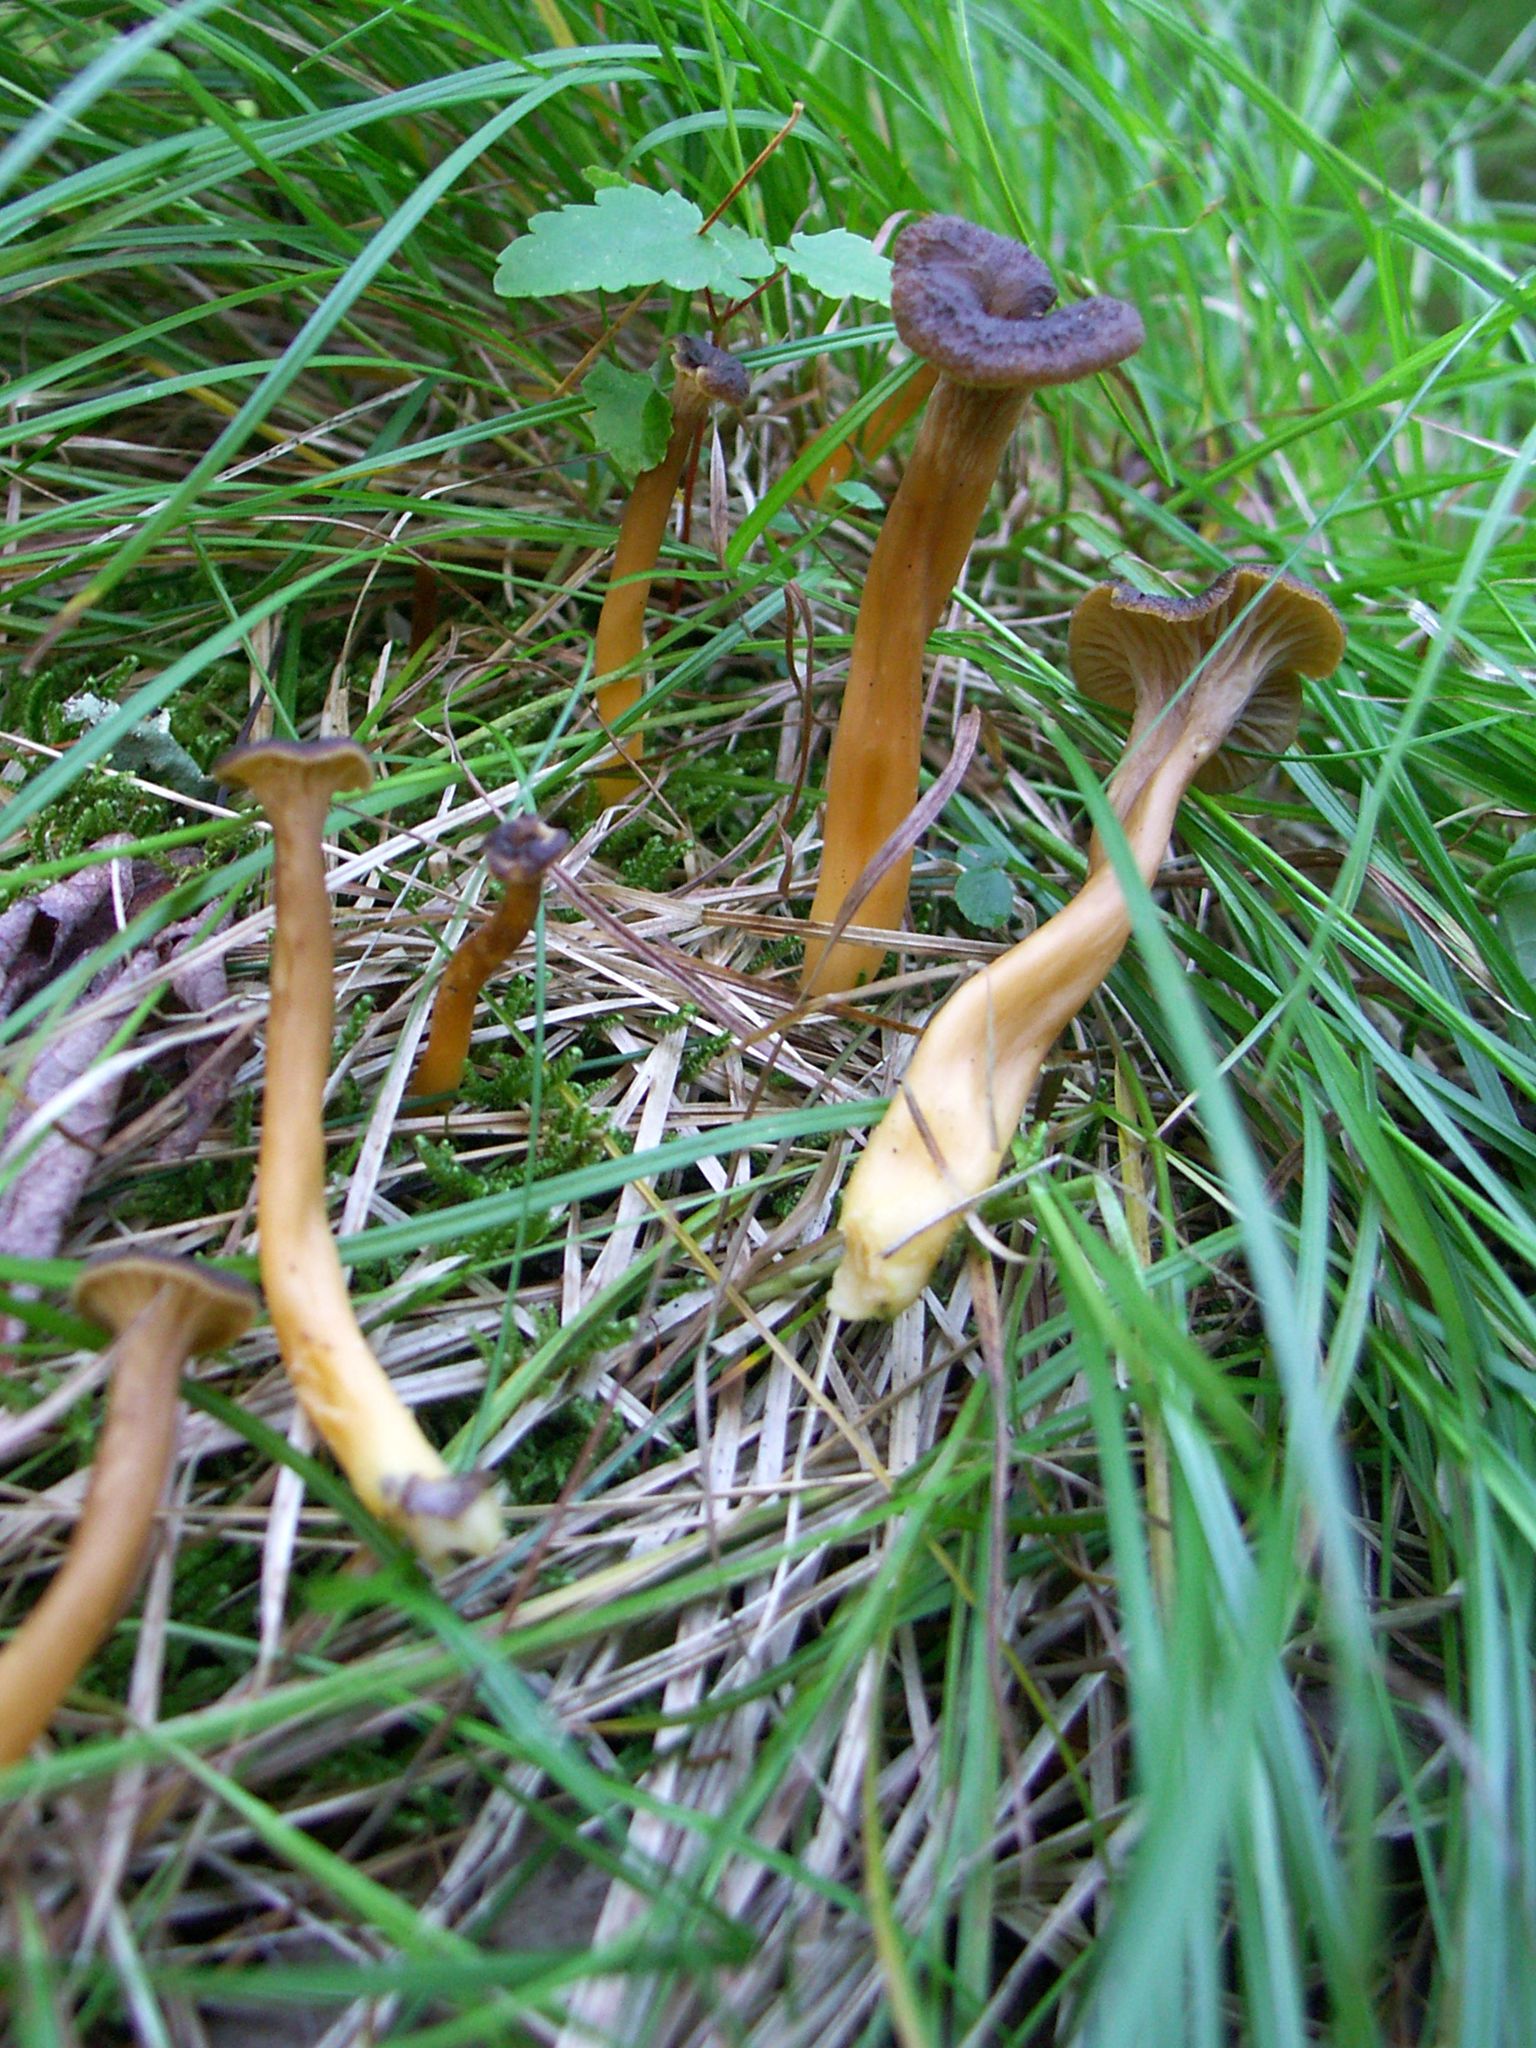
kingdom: Fungi
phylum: Basidiomycota
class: Agaricomycetes
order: Cantharellales
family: Hydnaceae
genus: Craterellus
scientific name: Craterellus tubaeformis
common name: Yellowfoot
